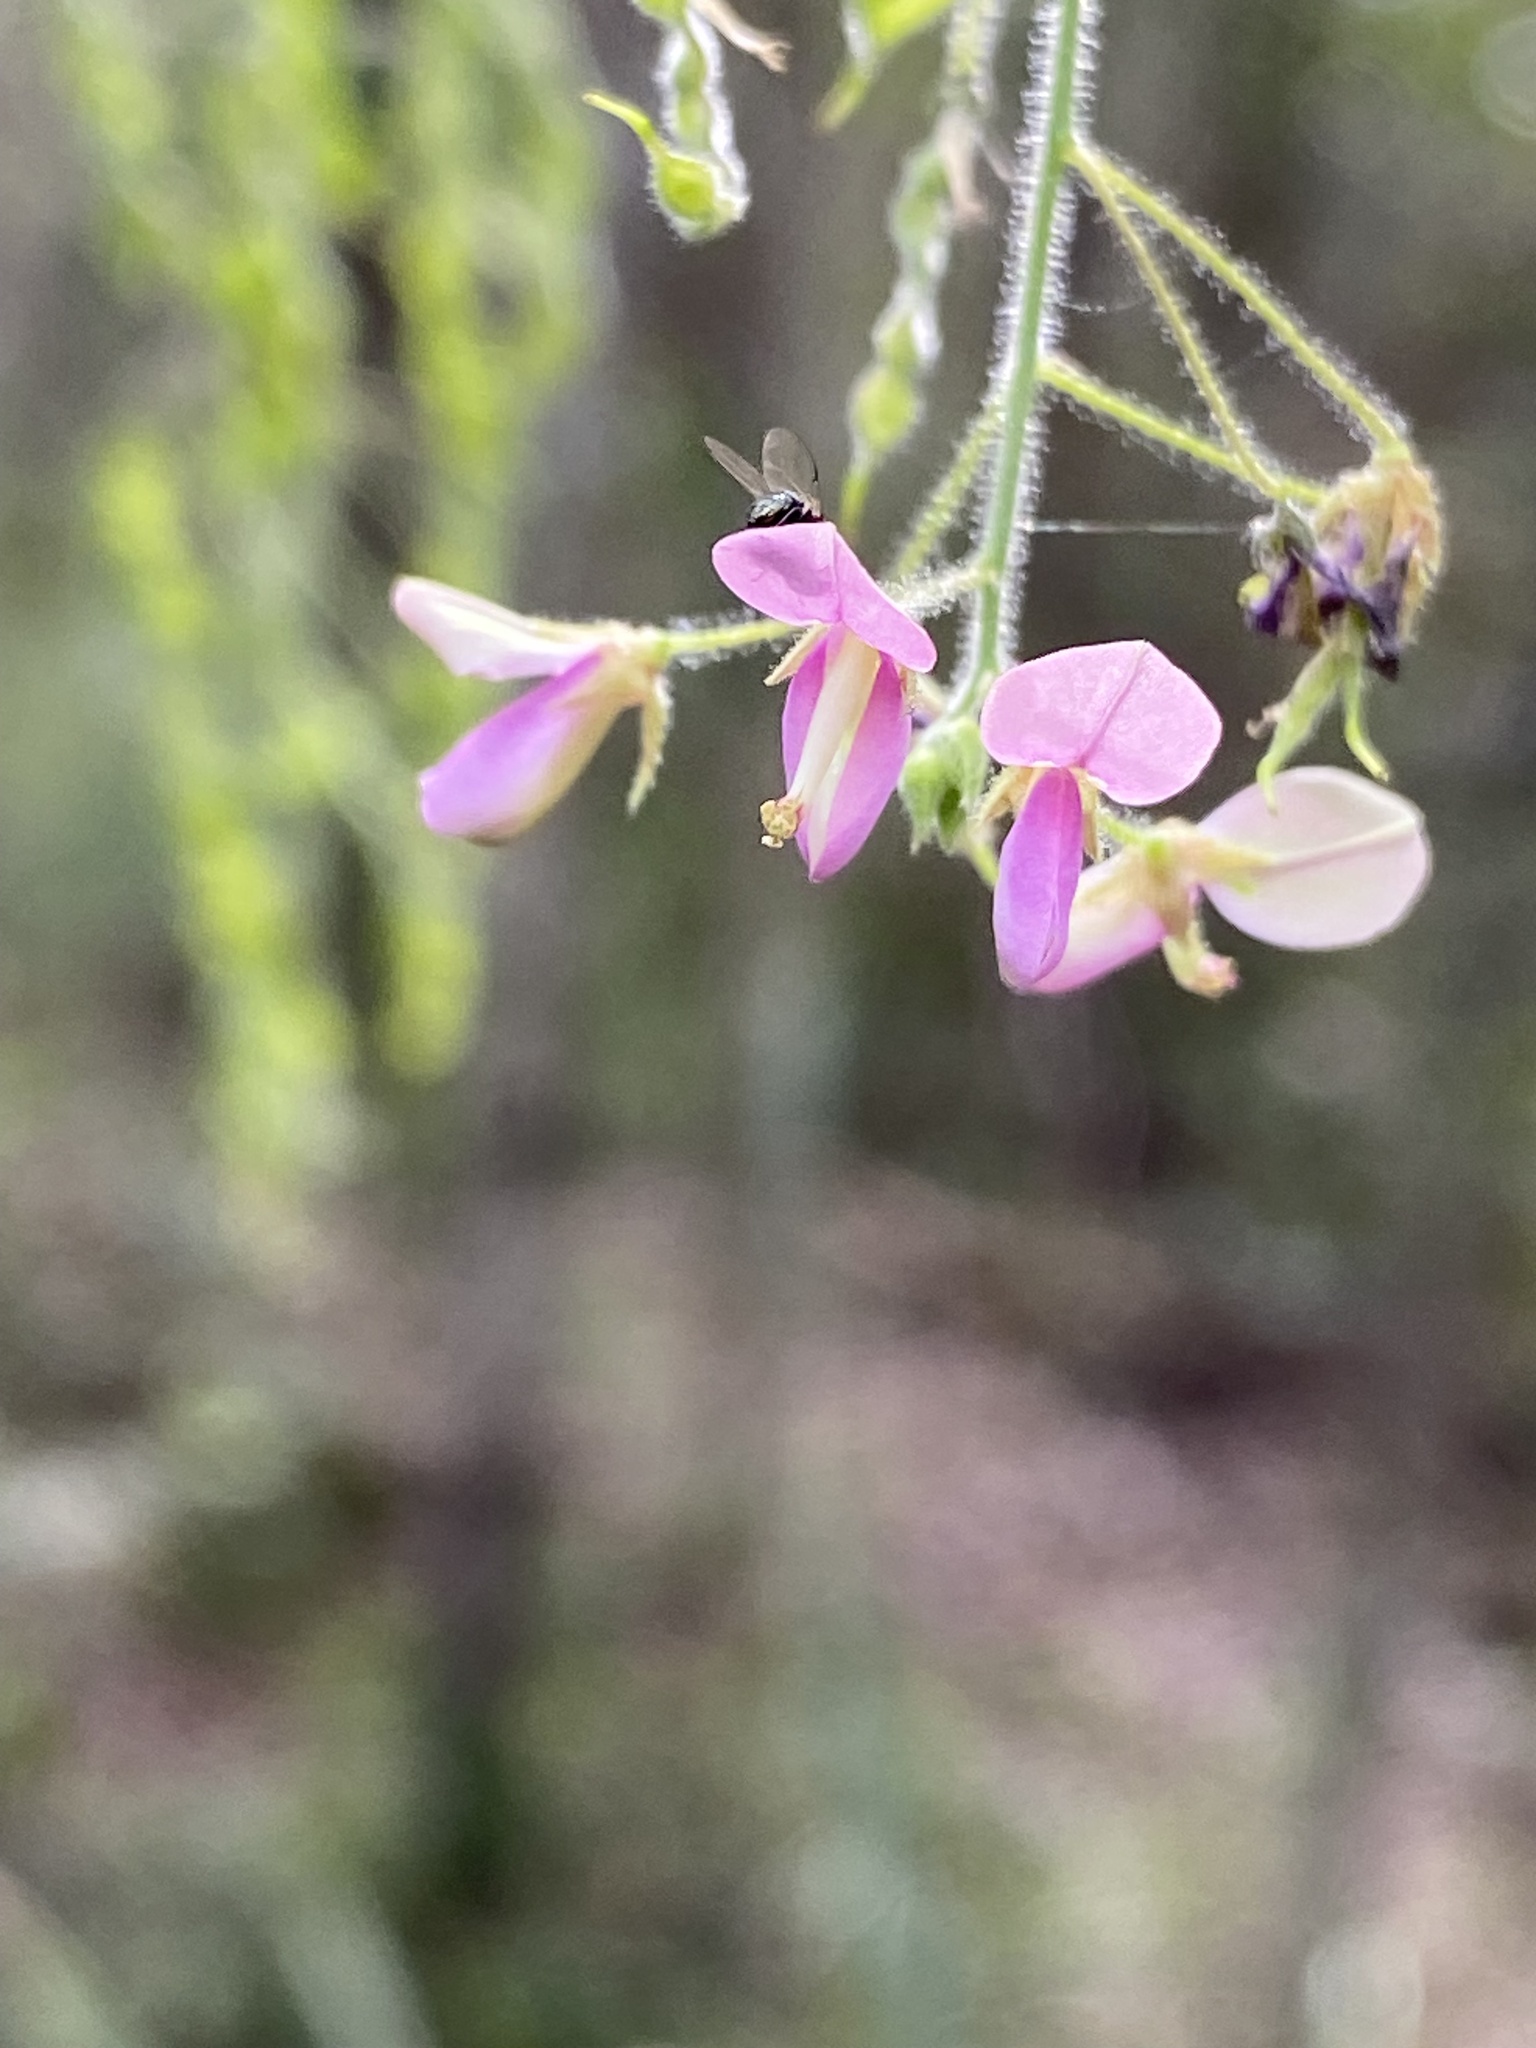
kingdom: Plantae
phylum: Tracheophyta
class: Magnoliopsida
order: Fabales
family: Fabaceae
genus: Desmodium
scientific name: Desmodium tortuosum
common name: Dixie ticktrefoil
